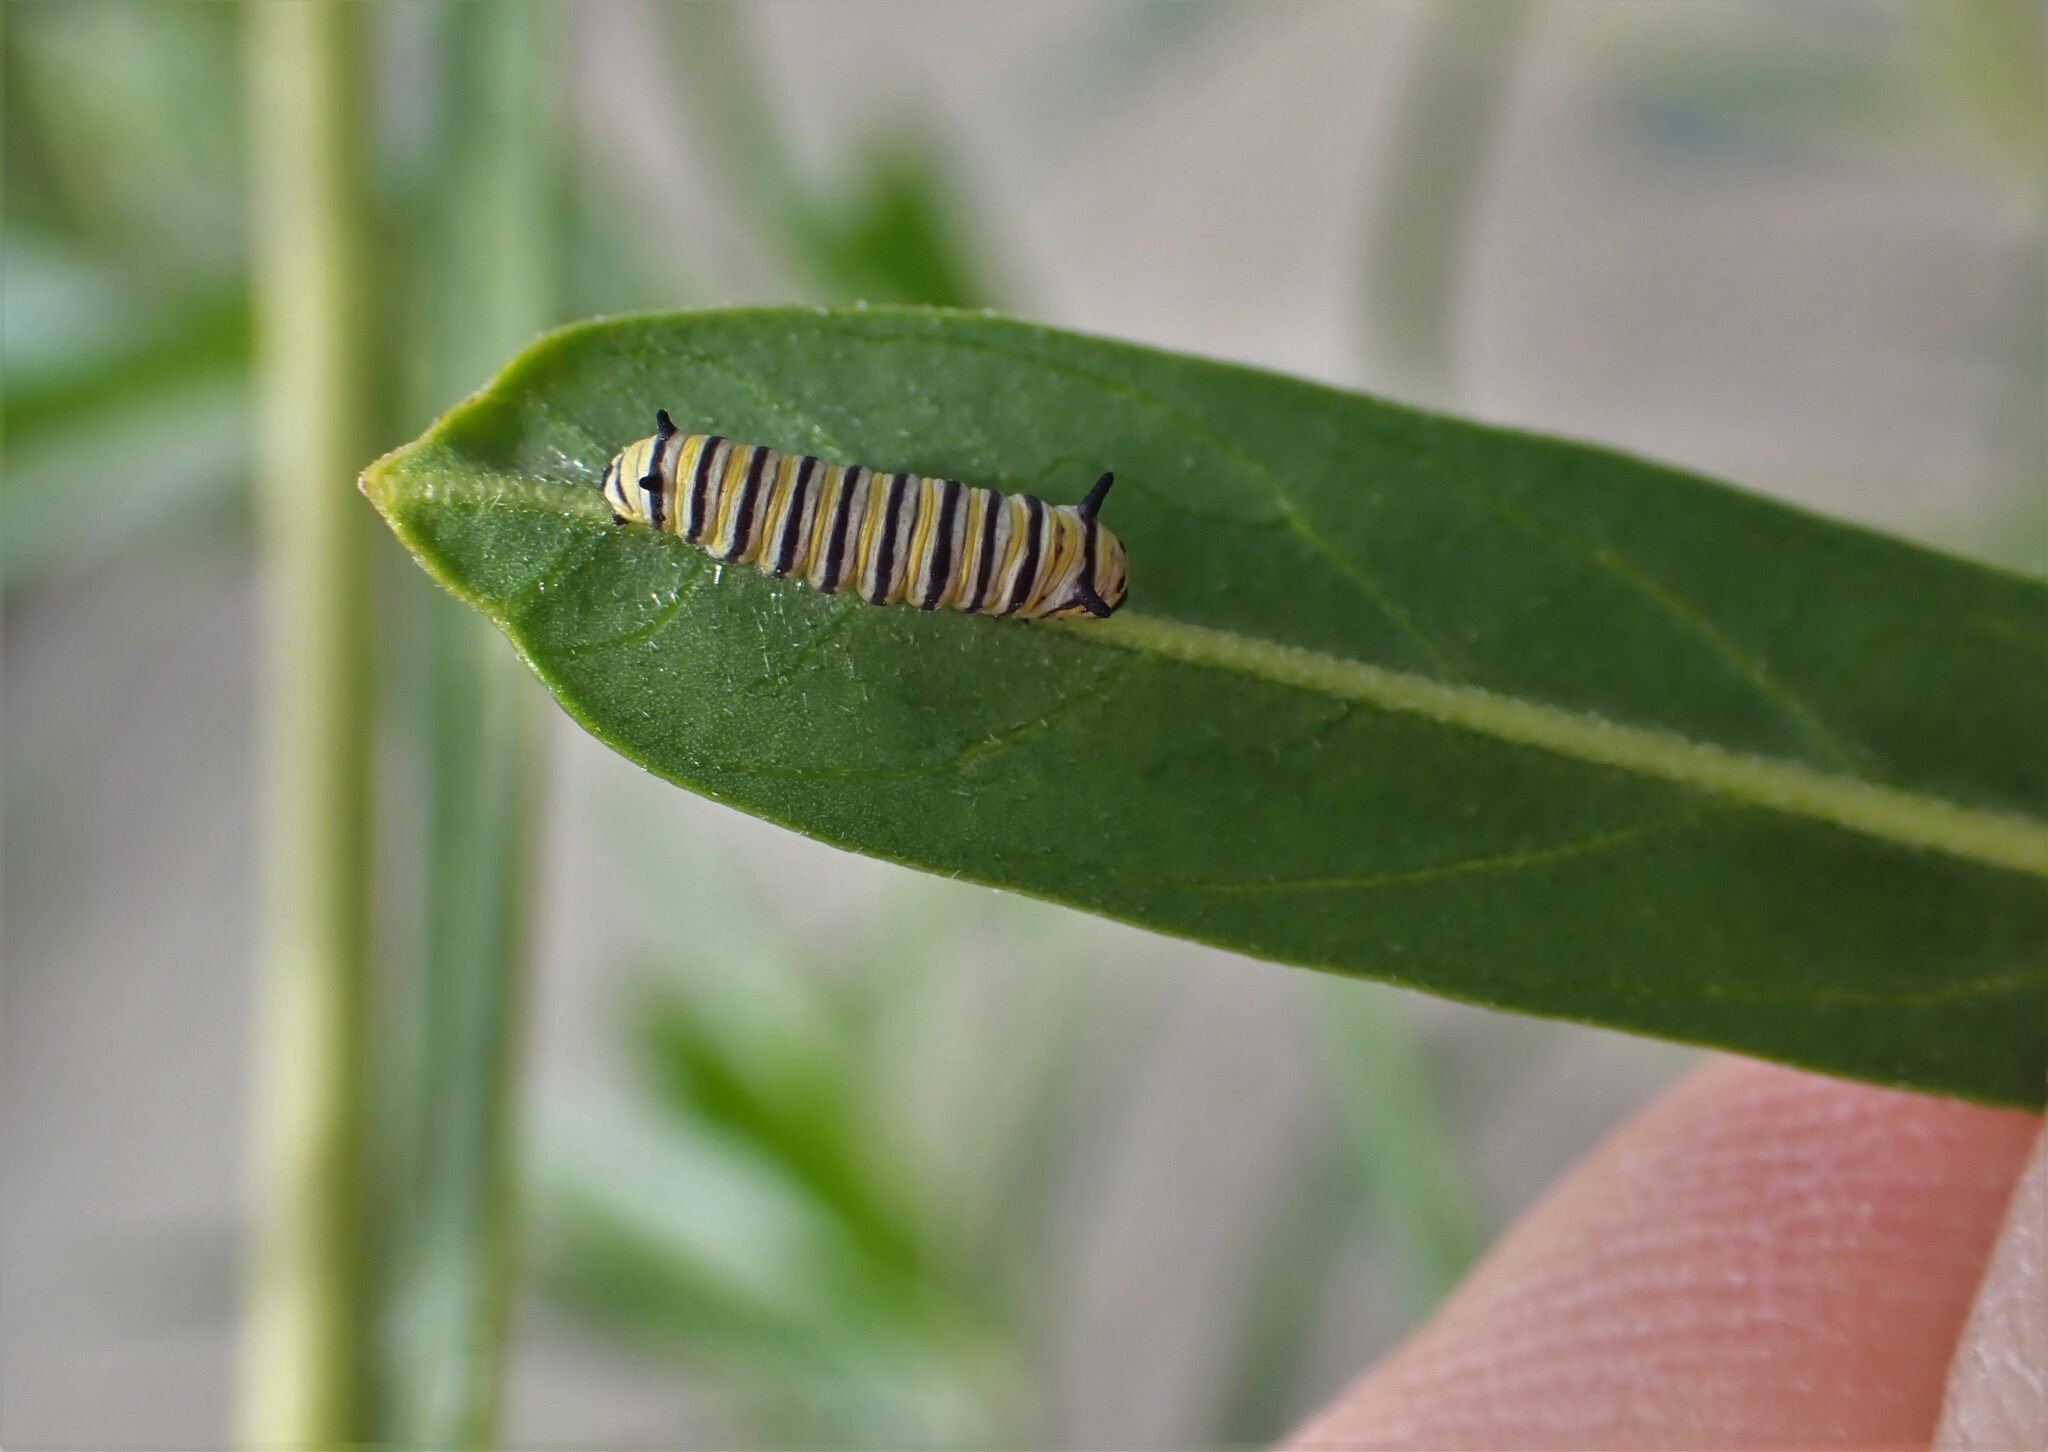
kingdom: Animalia
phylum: Arthropoda
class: Insecta
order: Lepidoptera
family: Nymphalidae
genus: Danaus
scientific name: Danaus plexippus
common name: Monarch
